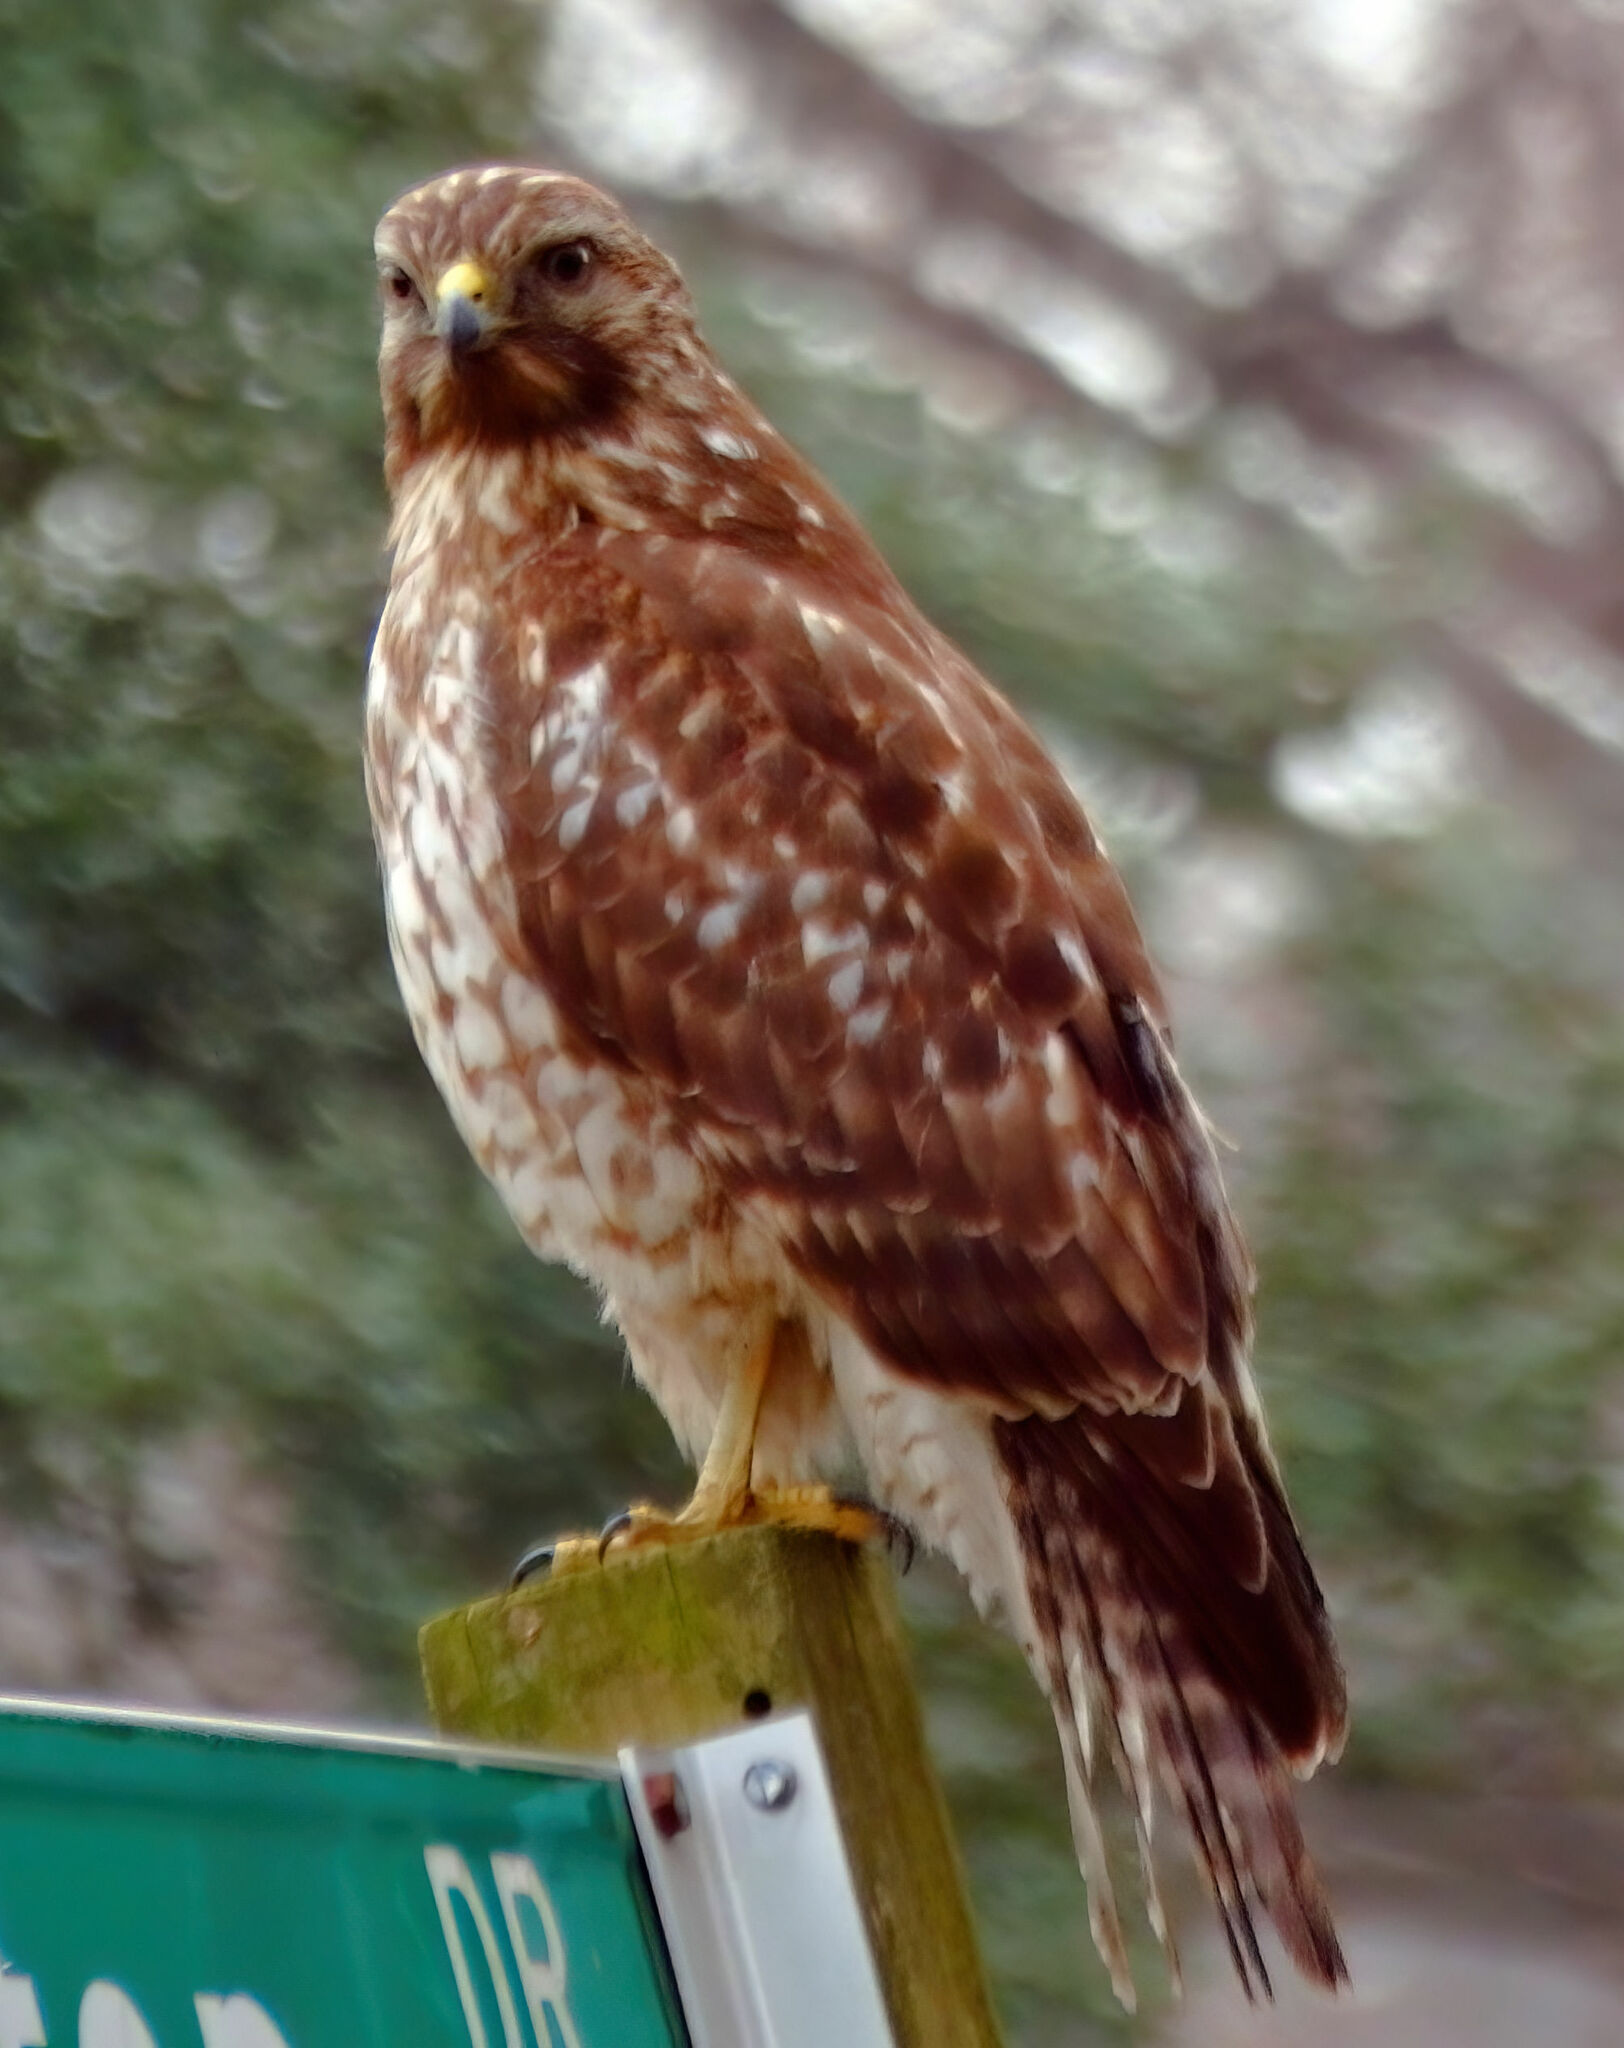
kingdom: Animalia
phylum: Chordata
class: Aves
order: Accipitriformes
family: Accipitridae
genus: Buteo
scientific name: Buteo lineatus
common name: Red-shouldered hawk
